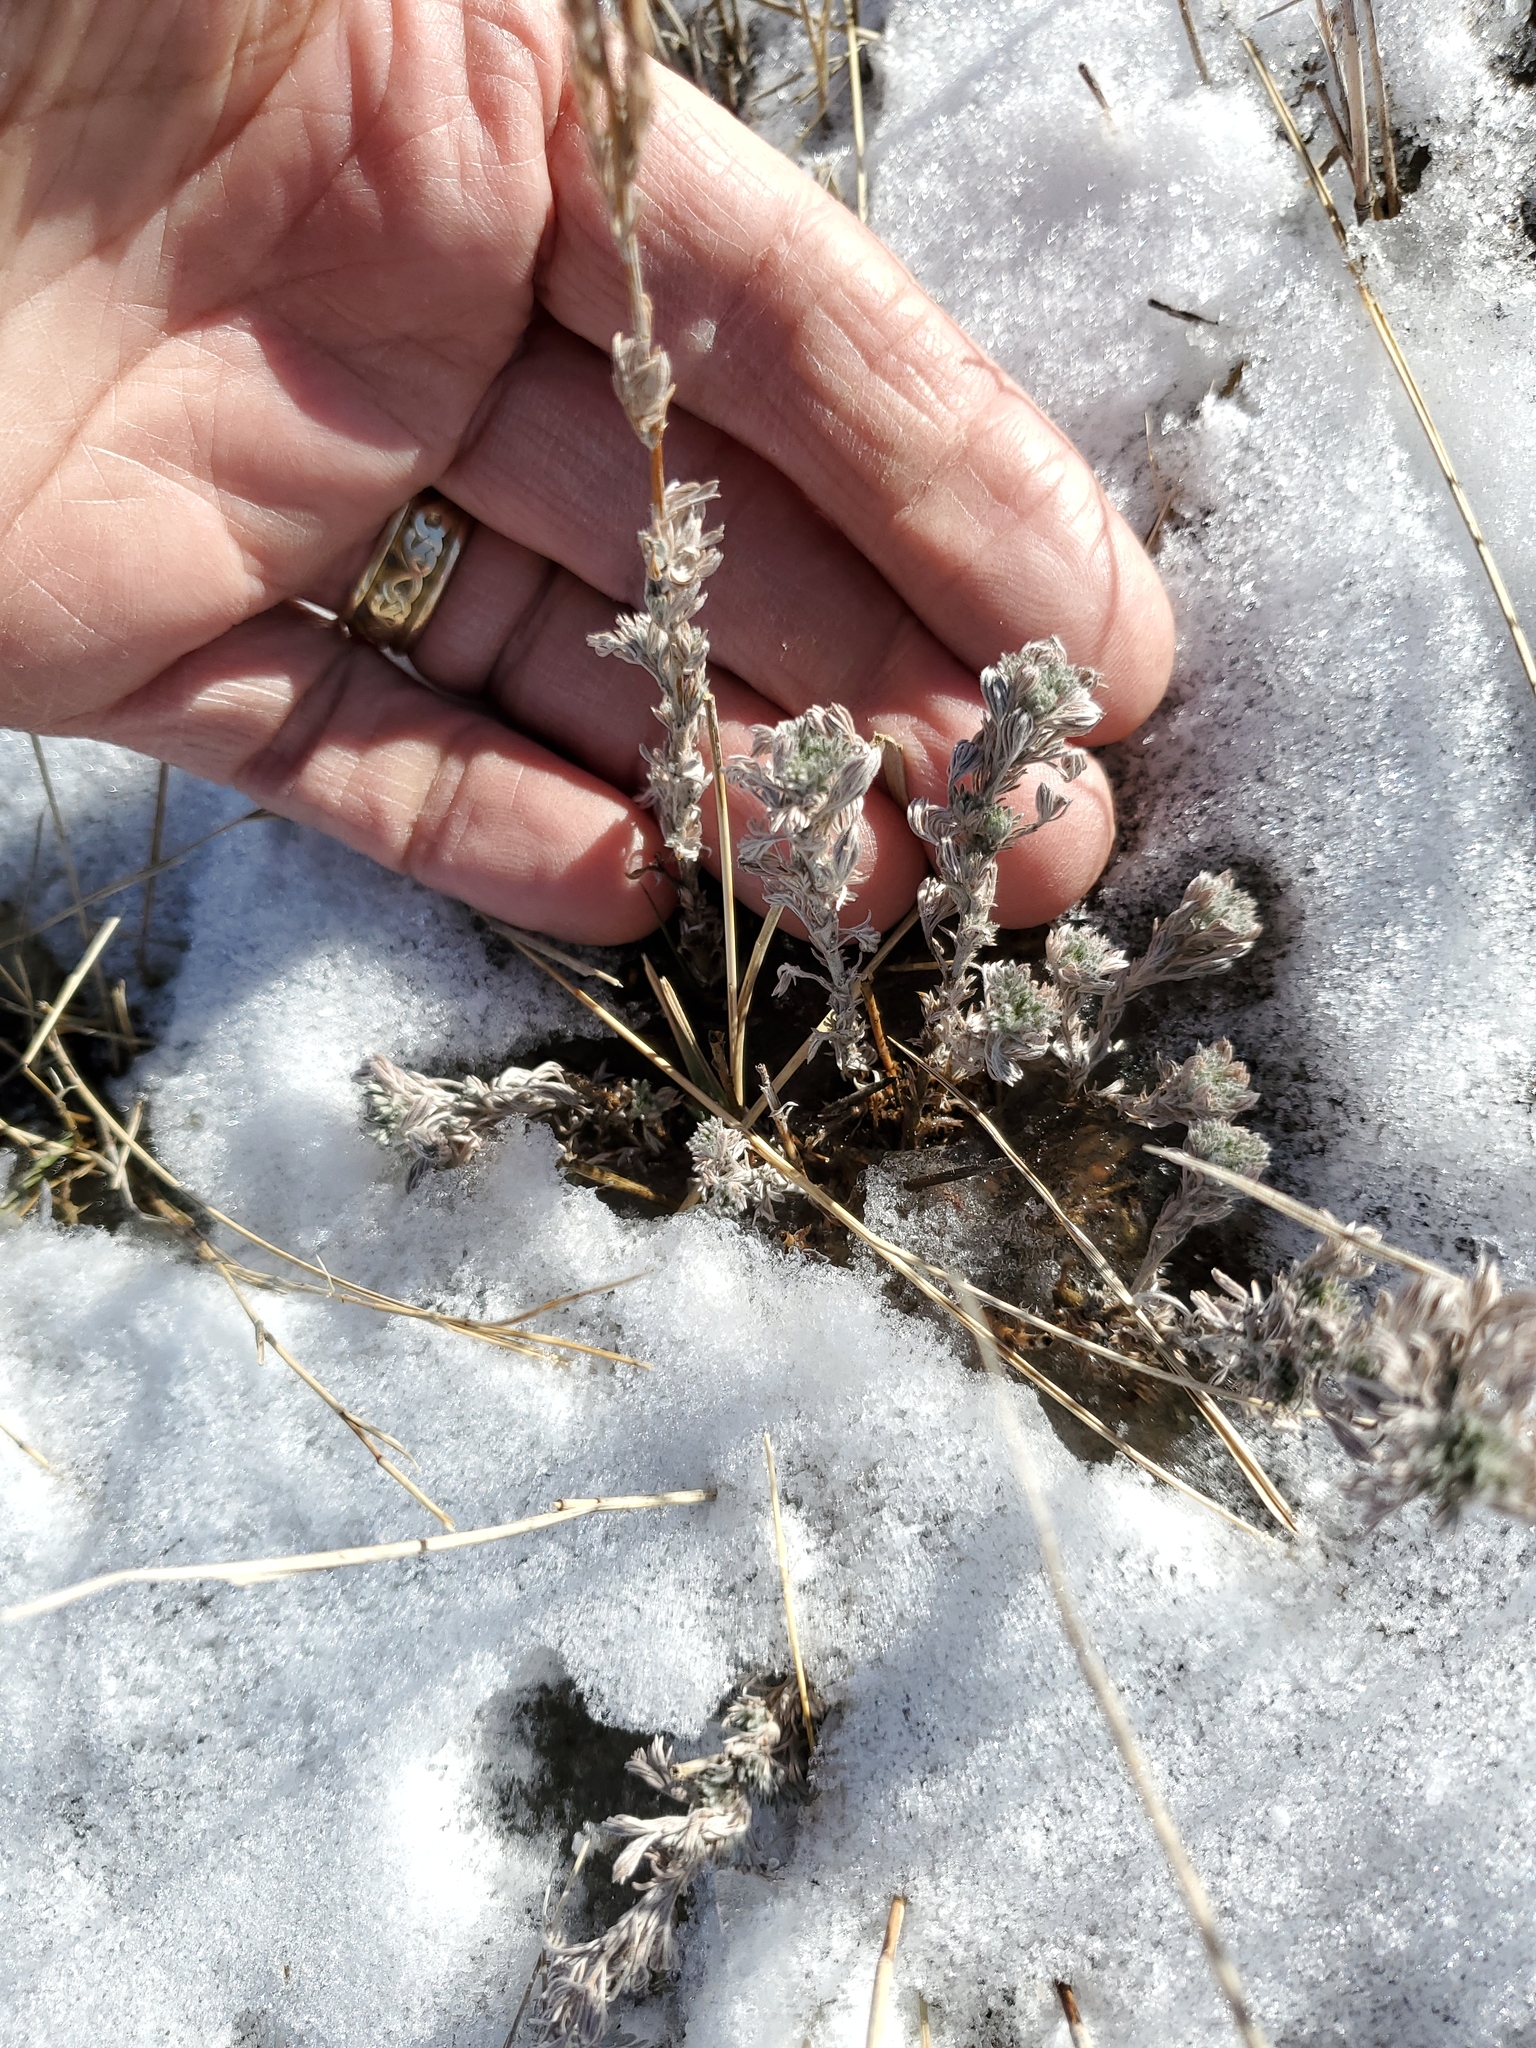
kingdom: Plantae
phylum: Tracheophyta
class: Magnoliopsida
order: Asterales
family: Asteraceae
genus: Artemisia
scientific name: Artemisia frigida
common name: Prairie sagewort
